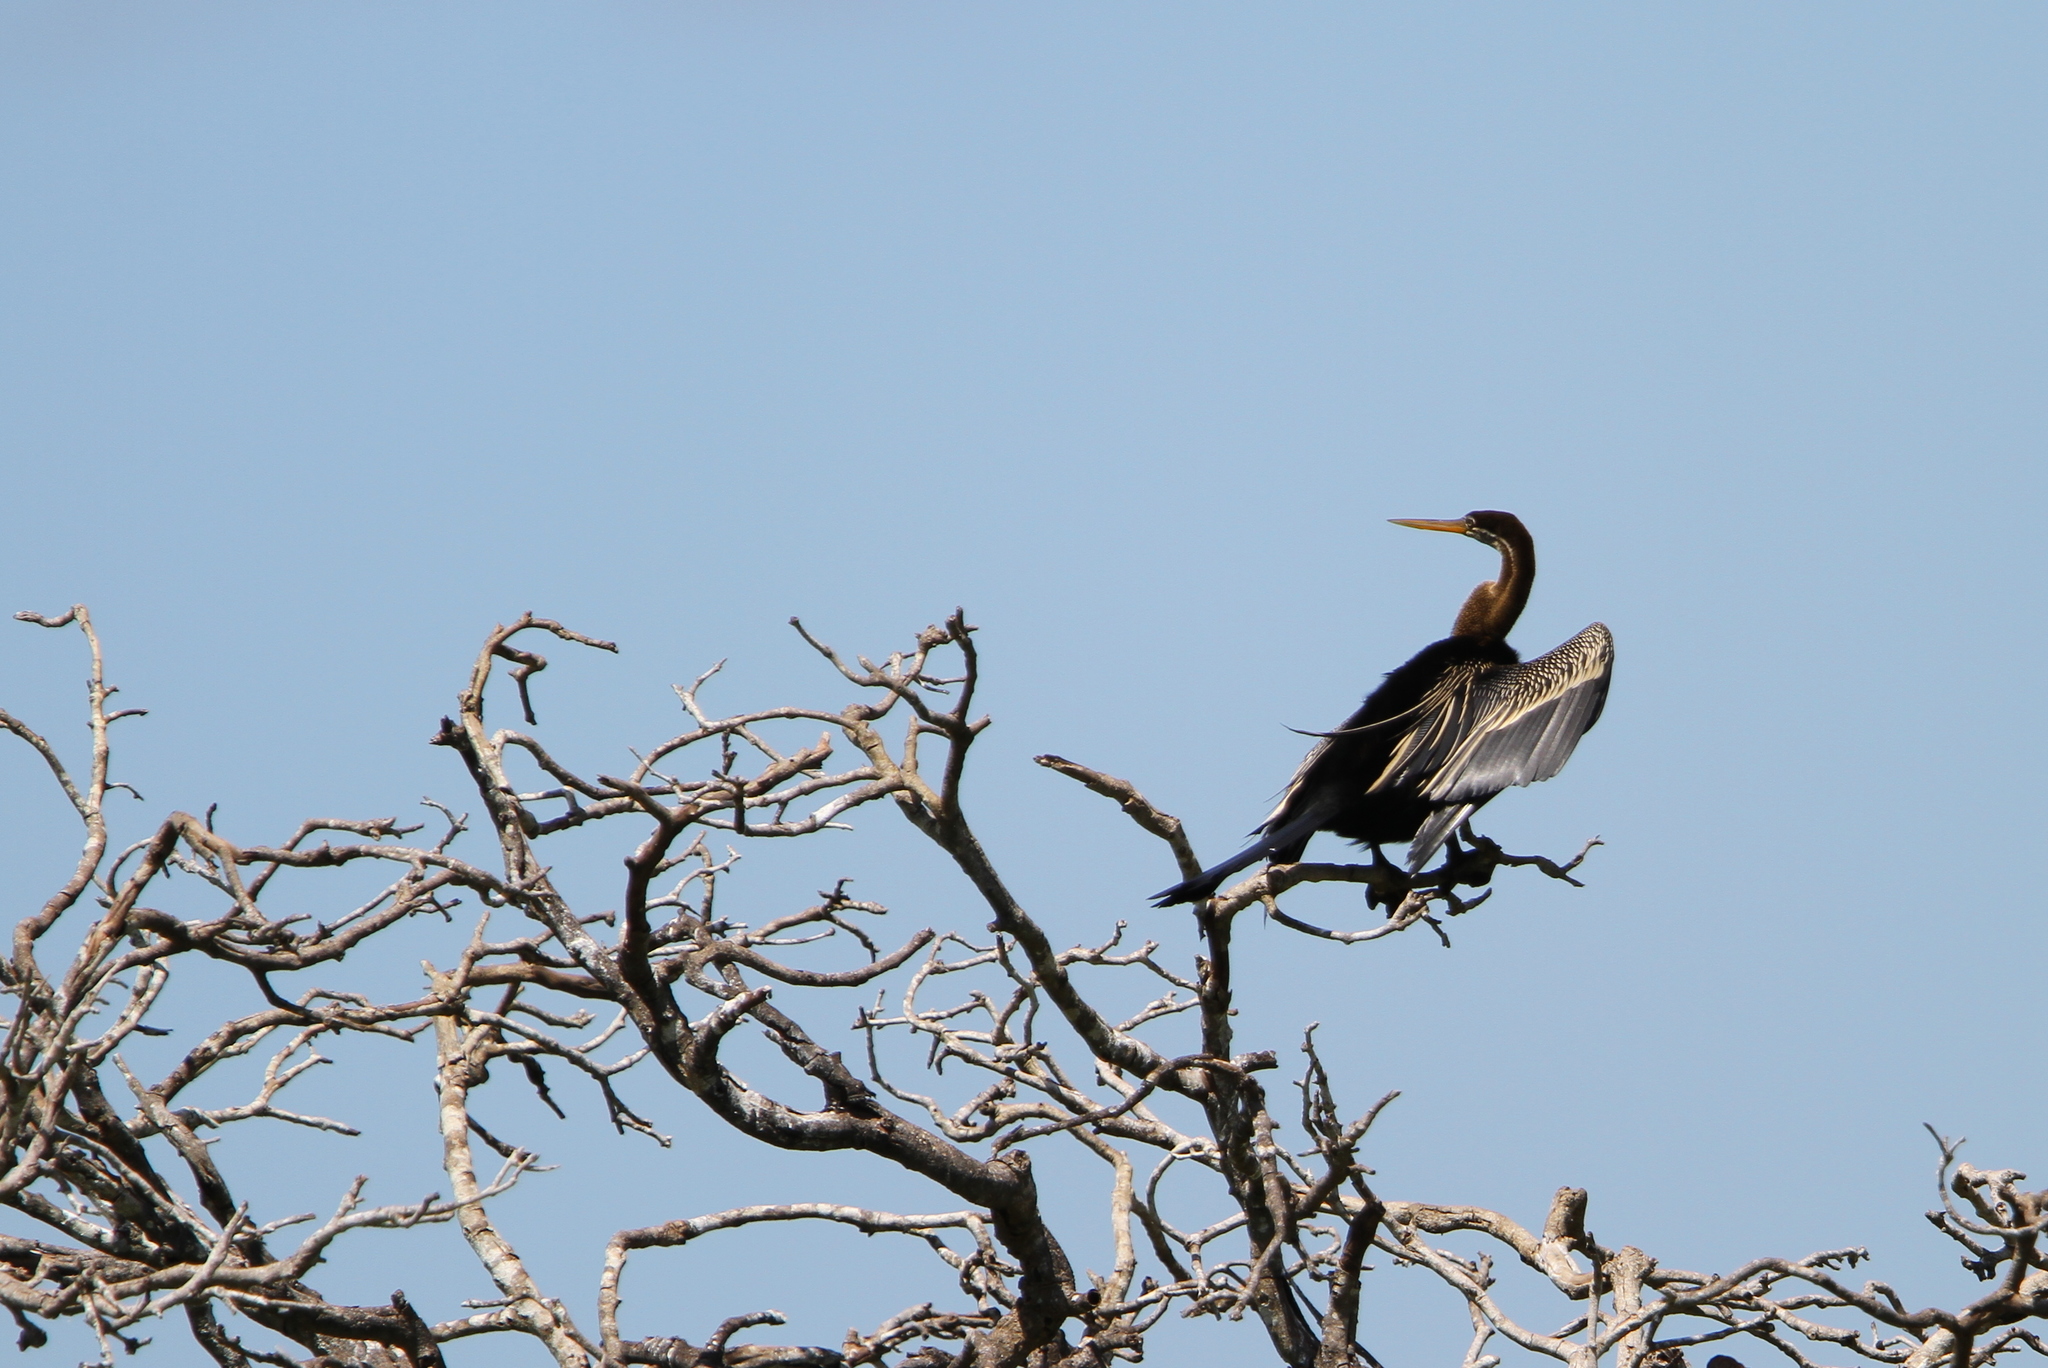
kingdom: Animalia
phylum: Chordata
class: Aves
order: Suliformes
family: Anhingidae
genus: Anhinga
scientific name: Anhinga melanogaster
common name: Oriental darter
